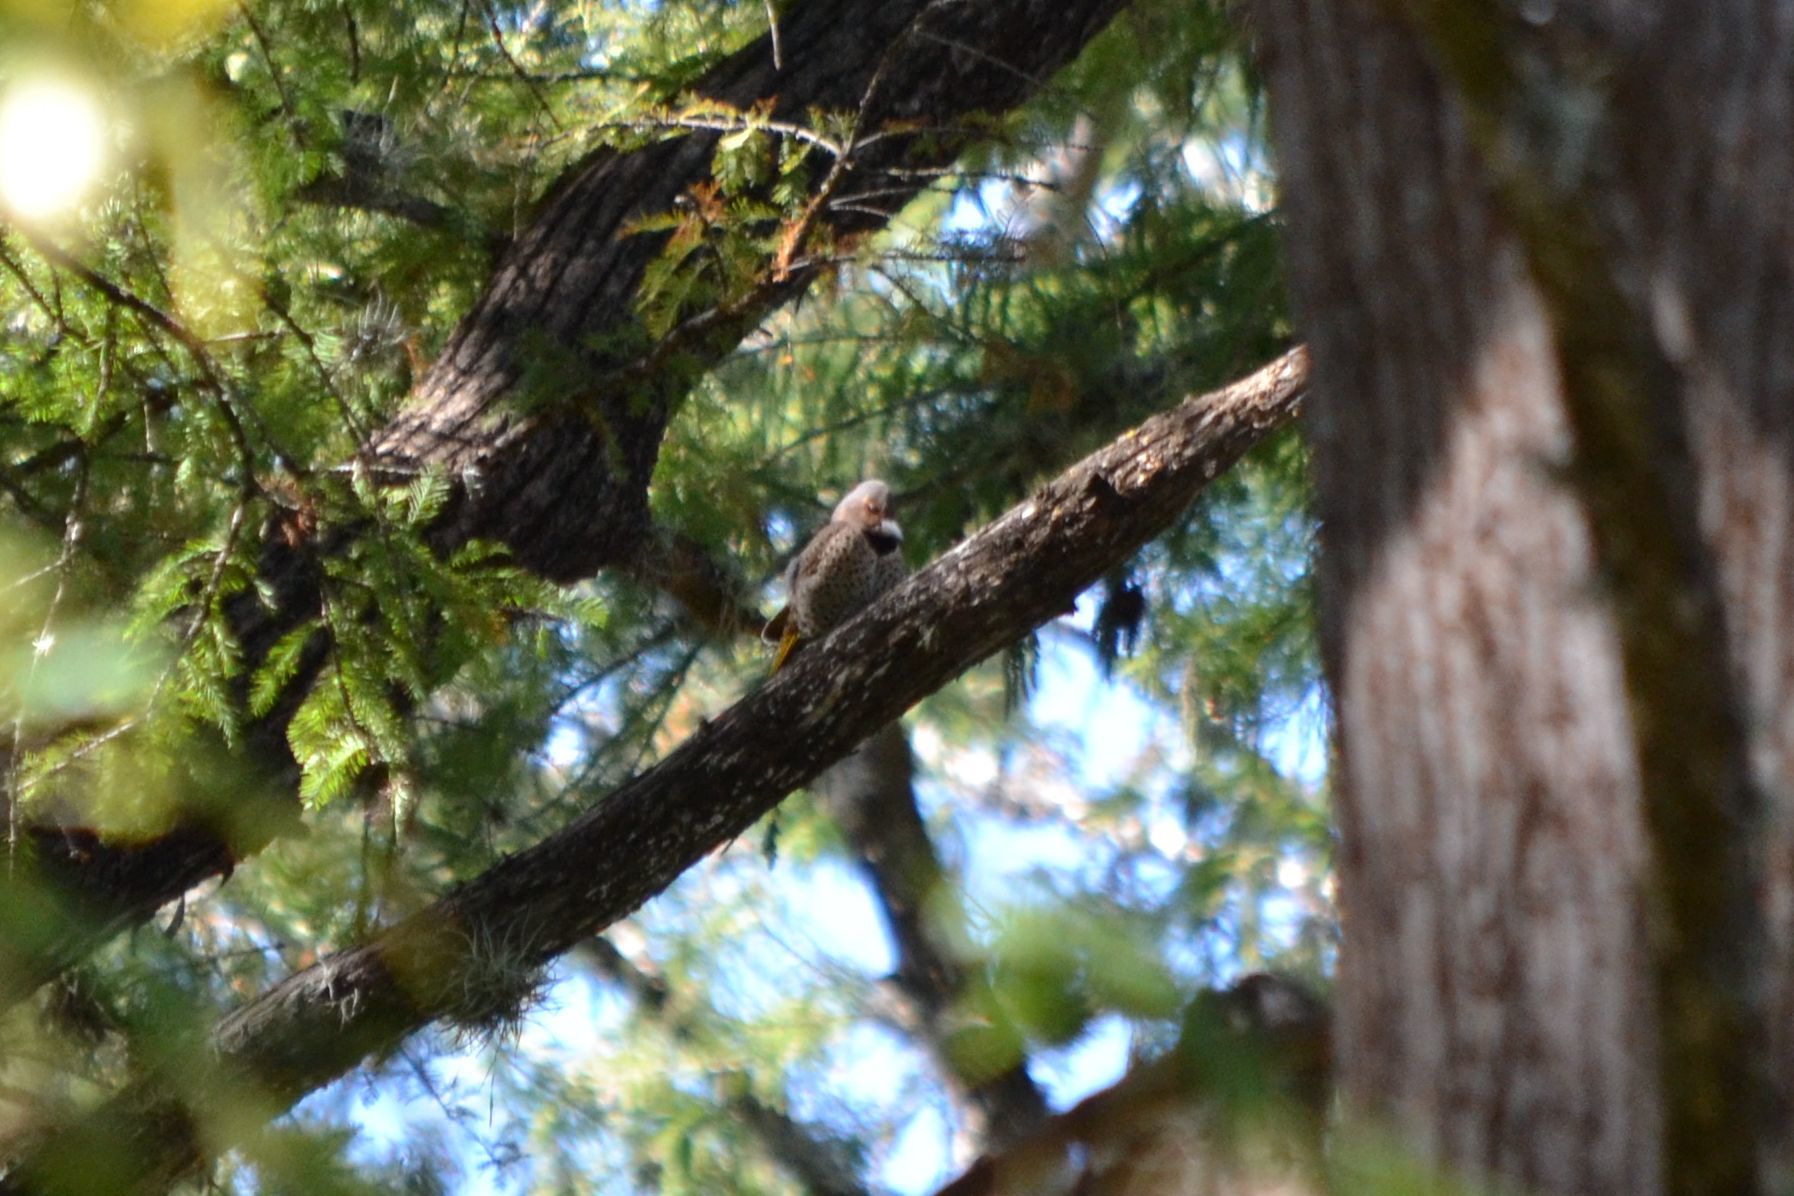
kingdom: Animalia
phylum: Chordata
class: Aves
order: Piciformes
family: Picidae
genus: Colaptes
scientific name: Colaptes auratus
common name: Northern flicker
